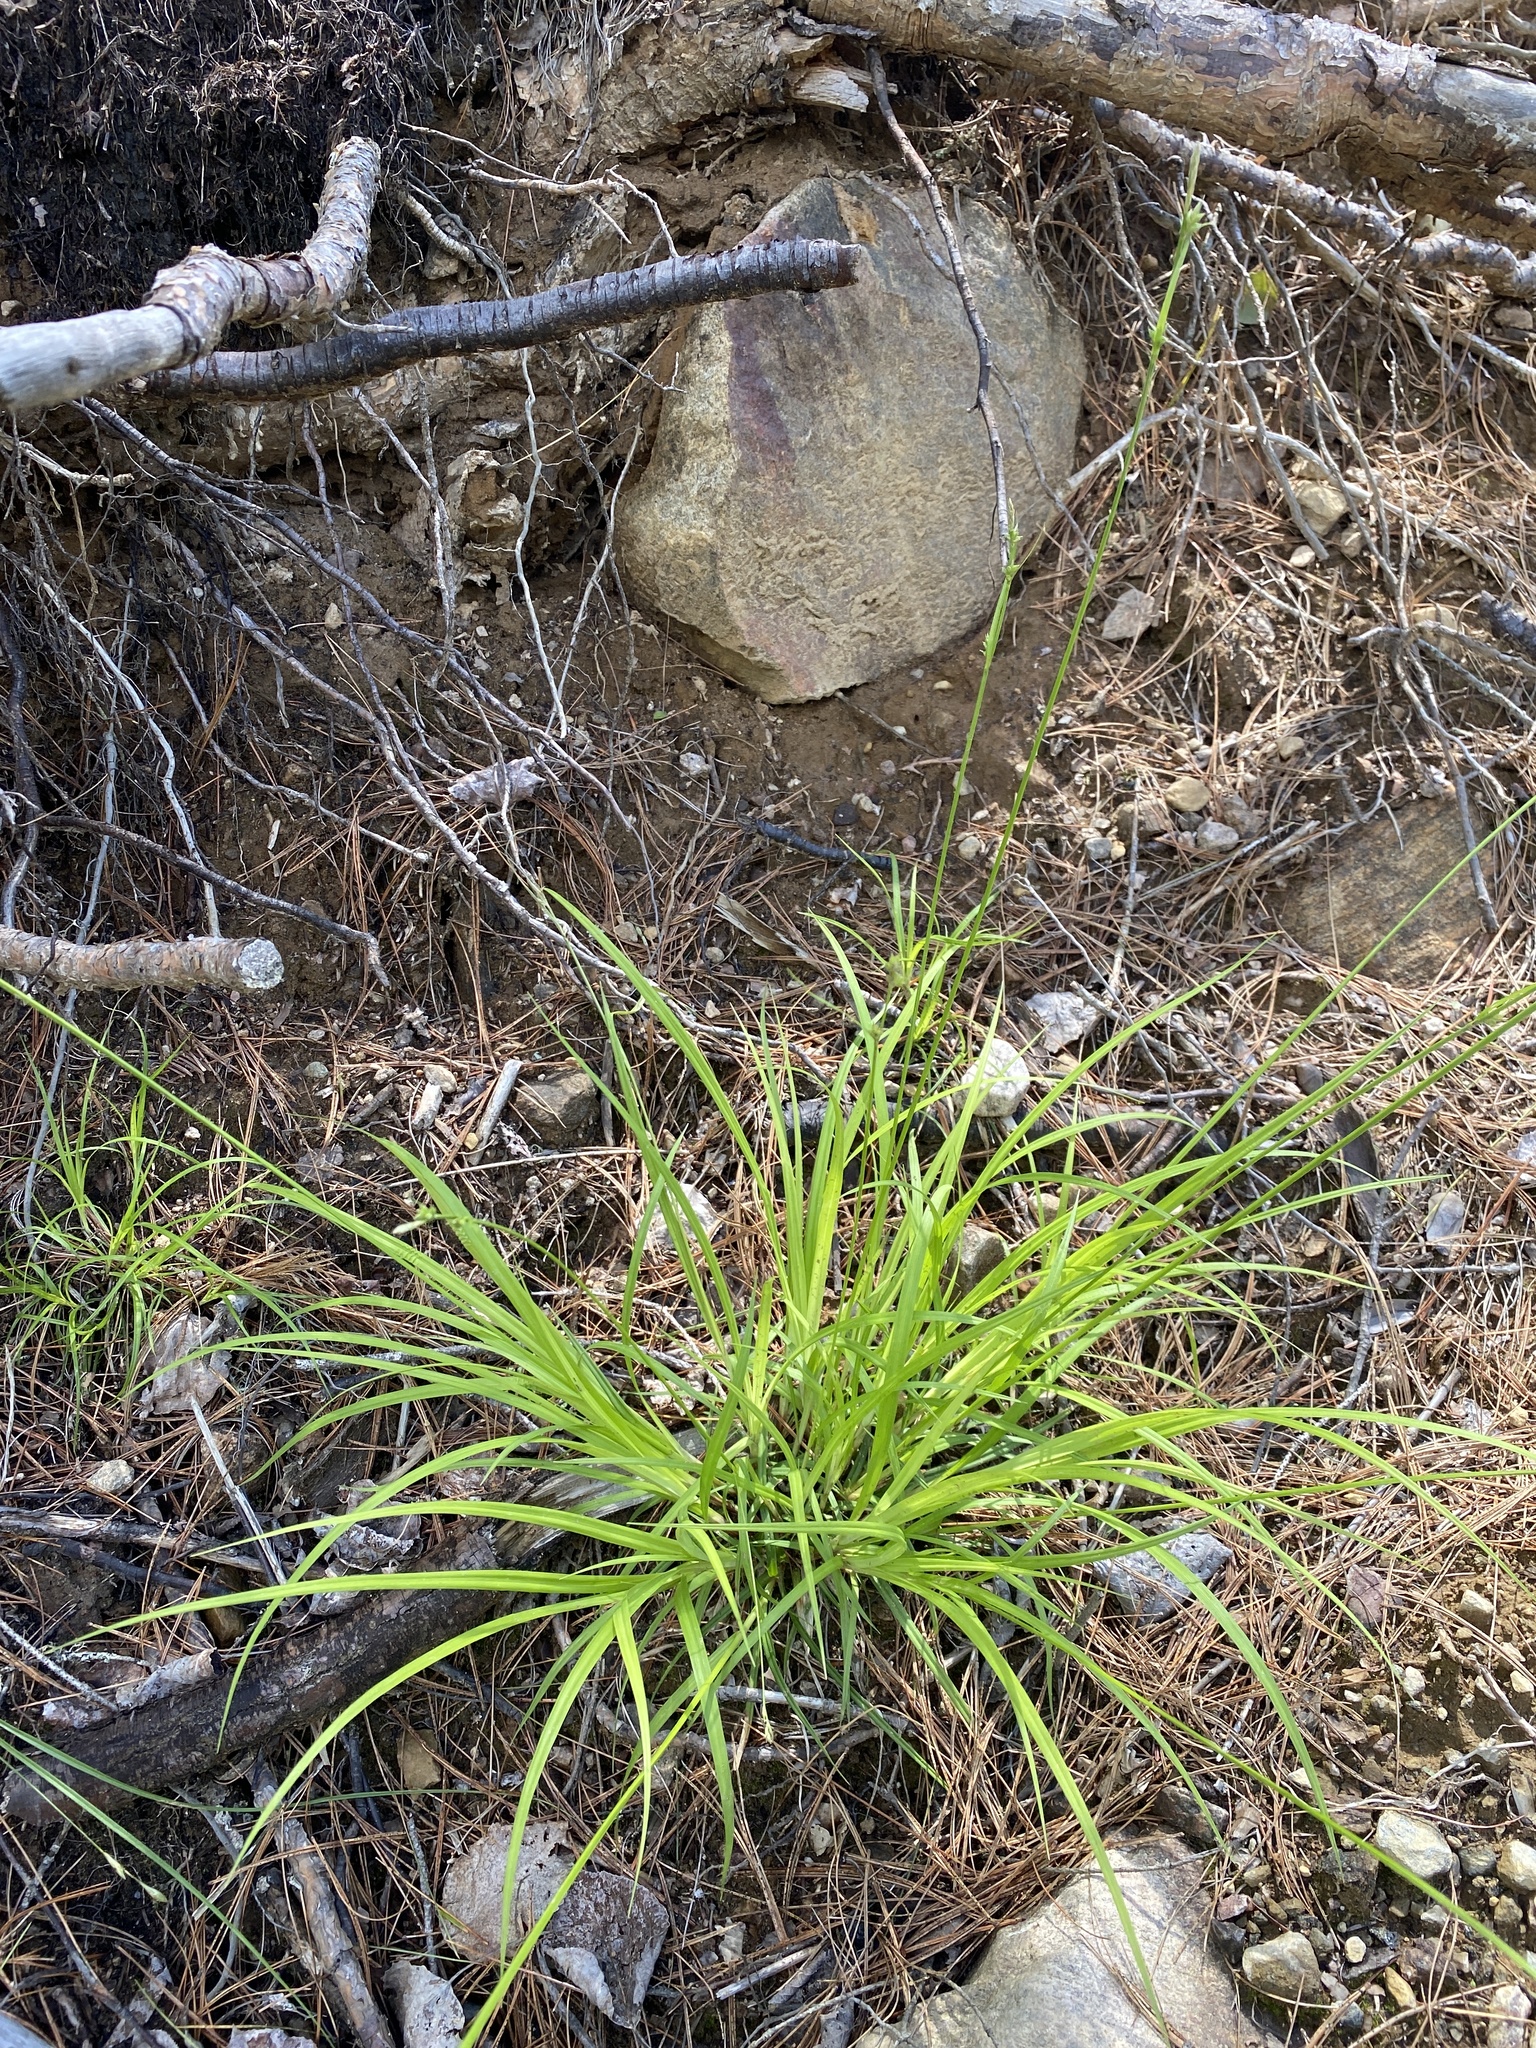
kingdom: Plantae
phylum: Tracheophyta
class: Liliopsida
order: Poales
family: Cyperaceae
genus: Carex
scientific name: Carex communis
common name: Colonial oak sedge
